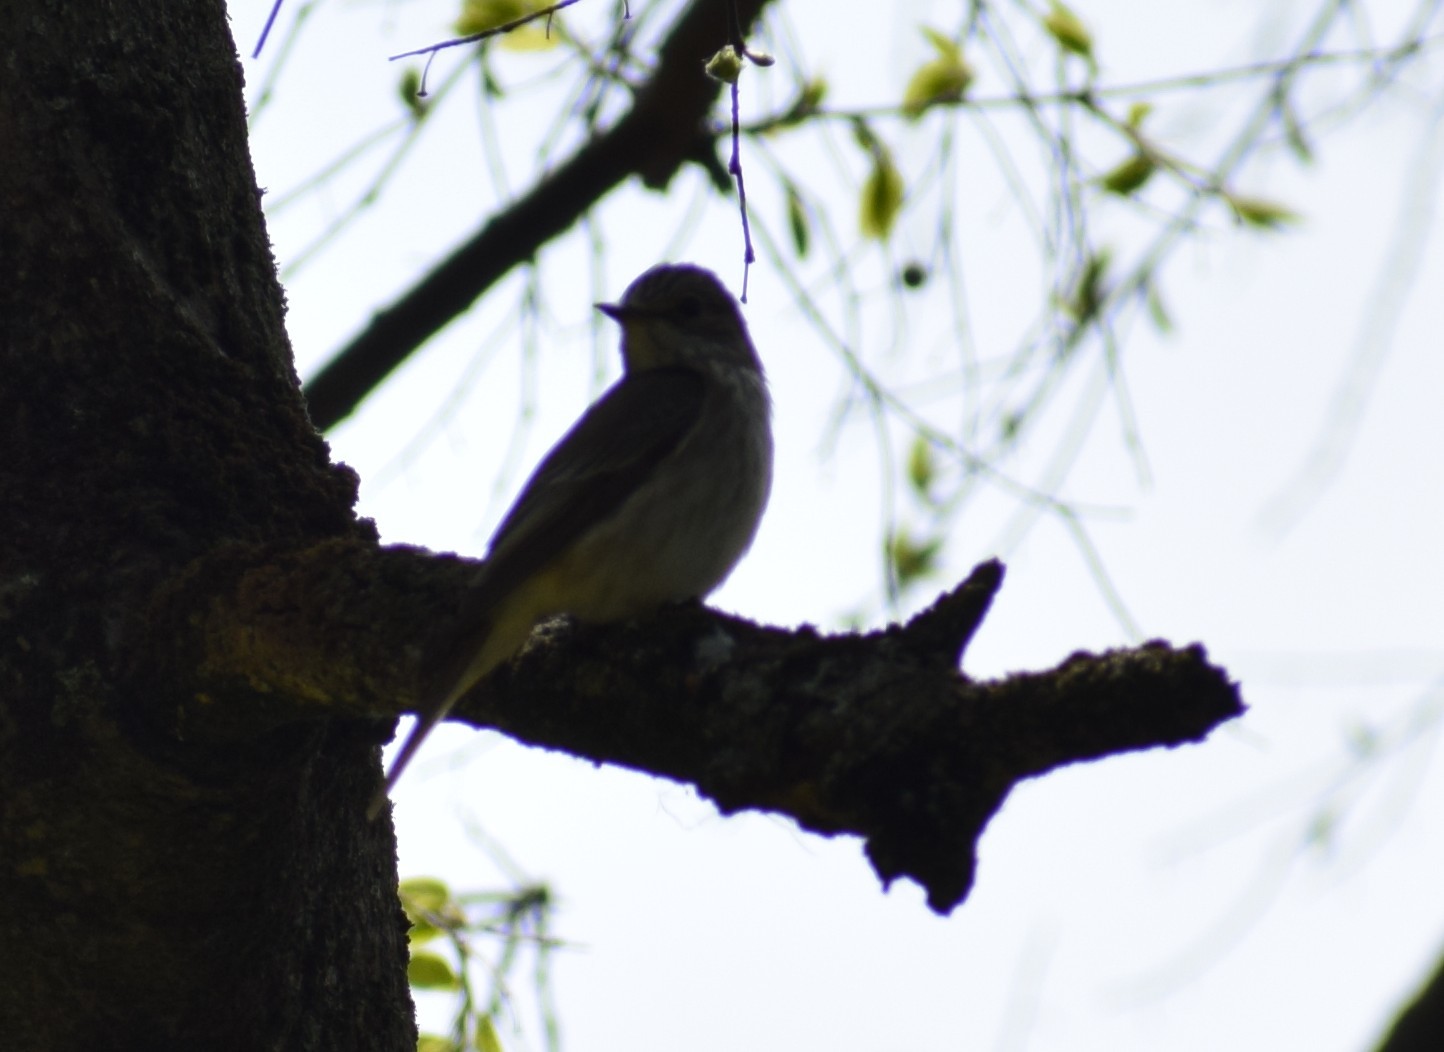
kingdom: Animalia
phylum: Chordata
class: Aves
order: Passeriformes
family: Muscicapidae
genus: Muscicapa
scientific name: Muscicapa striata
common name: Spotted flycatcher
